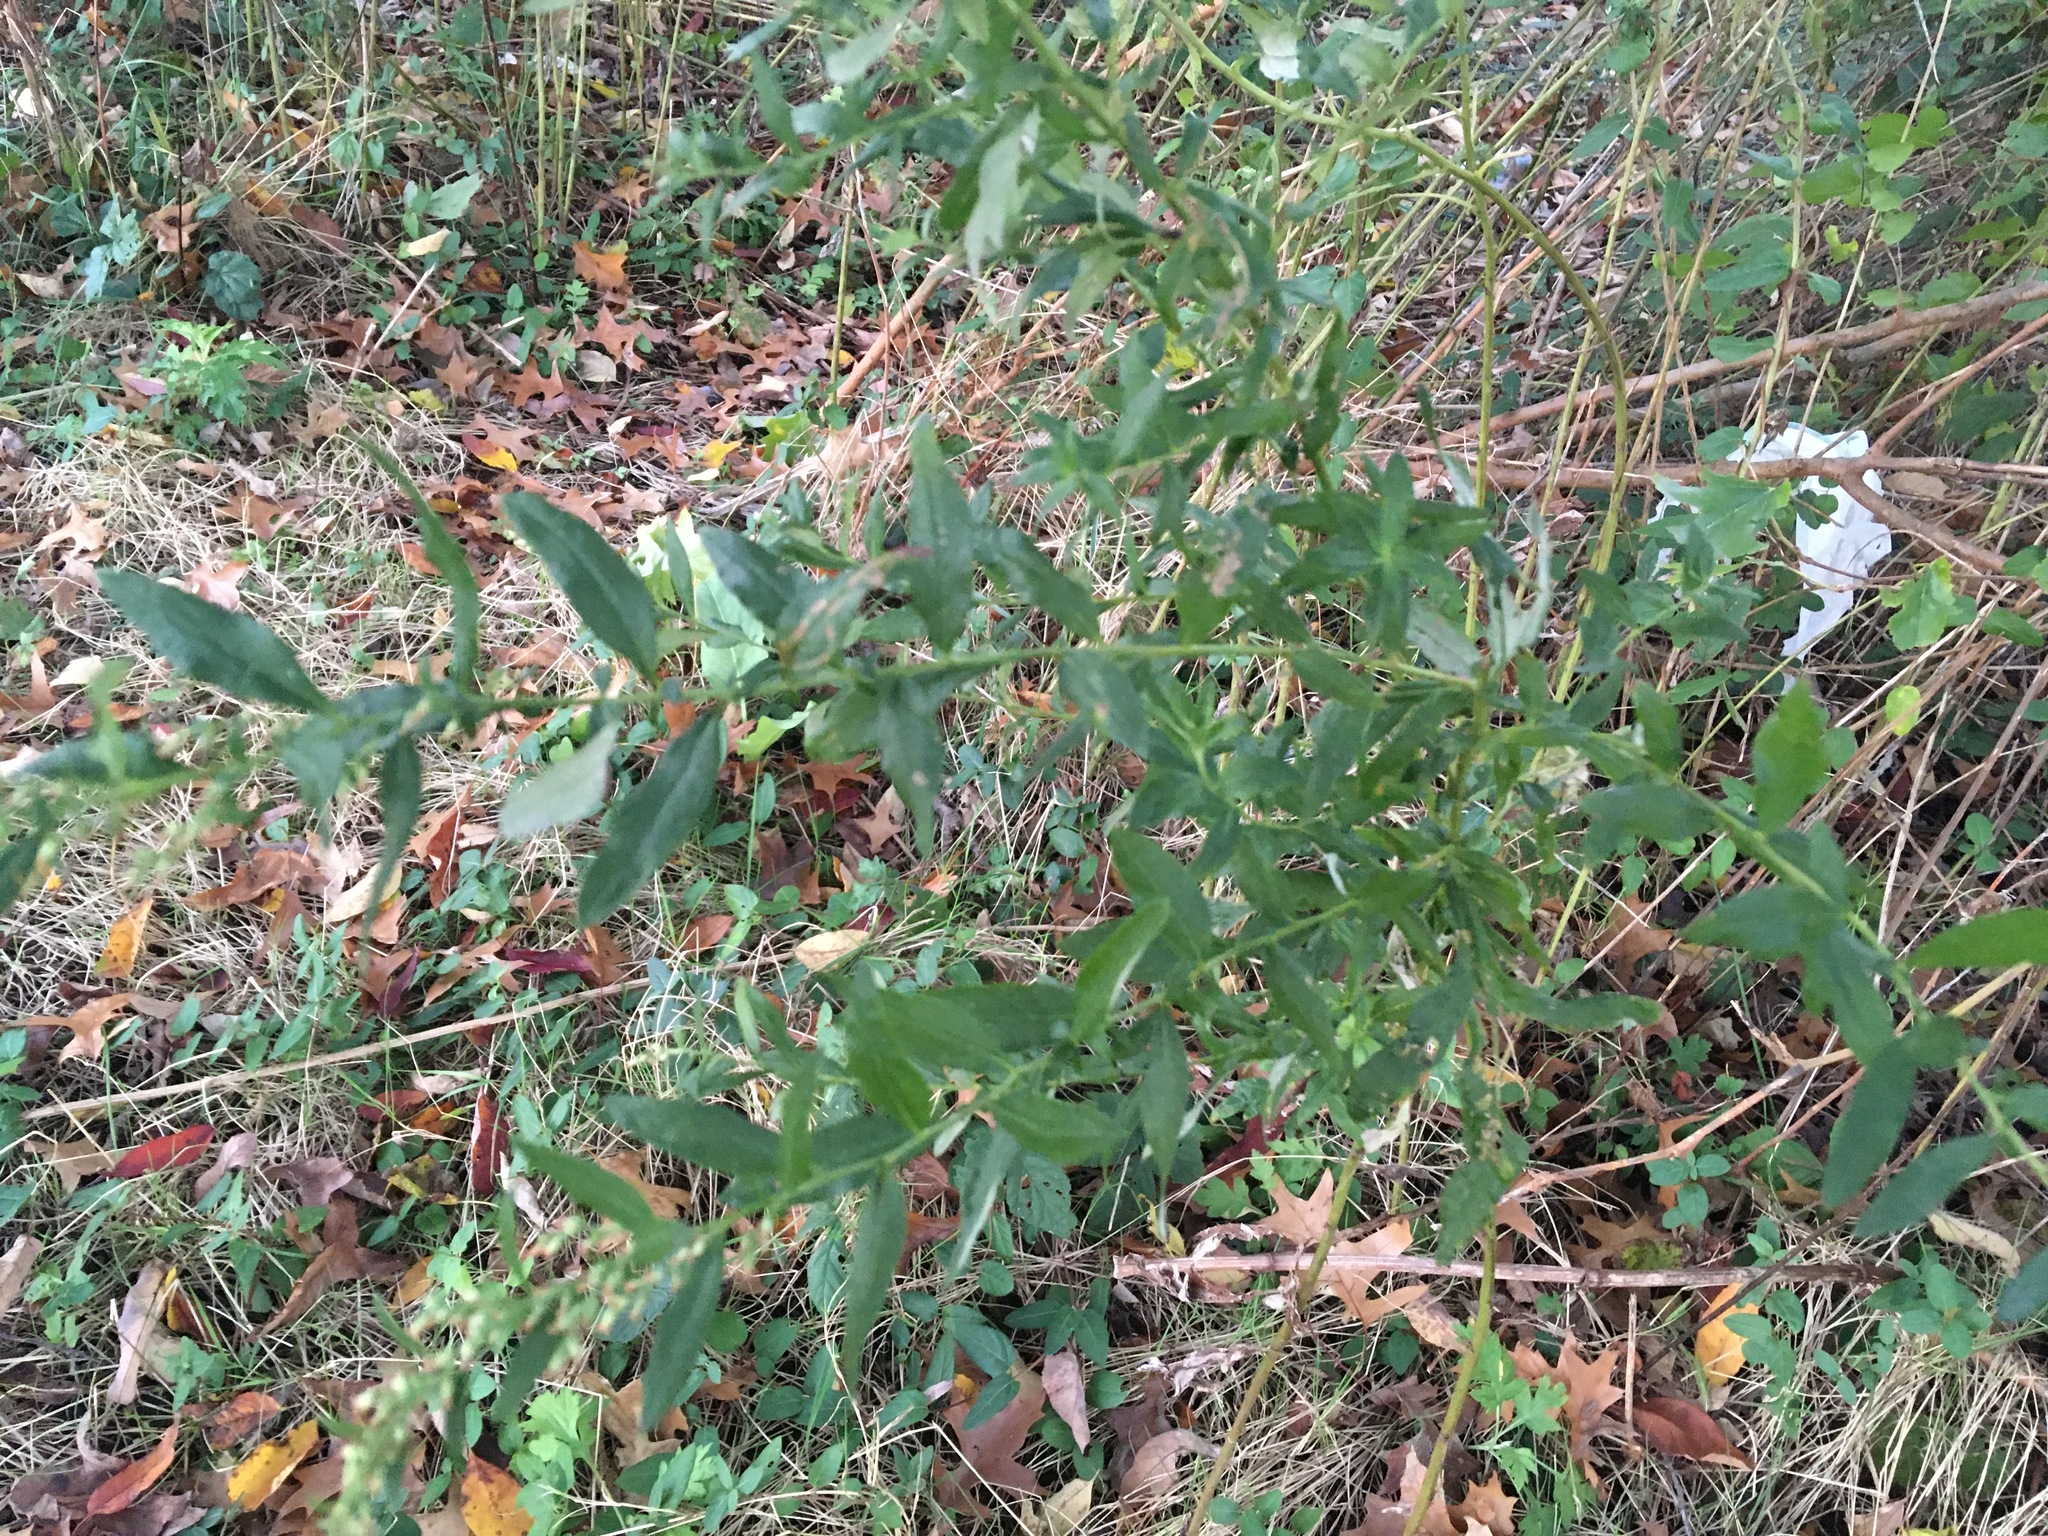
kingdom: Plantae
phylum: Tracheophyta
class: Magnoliopsida
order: Asterales
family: Asteraceae
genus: Artemisia
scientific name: Artemisia vulgaris
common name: Mugwort
